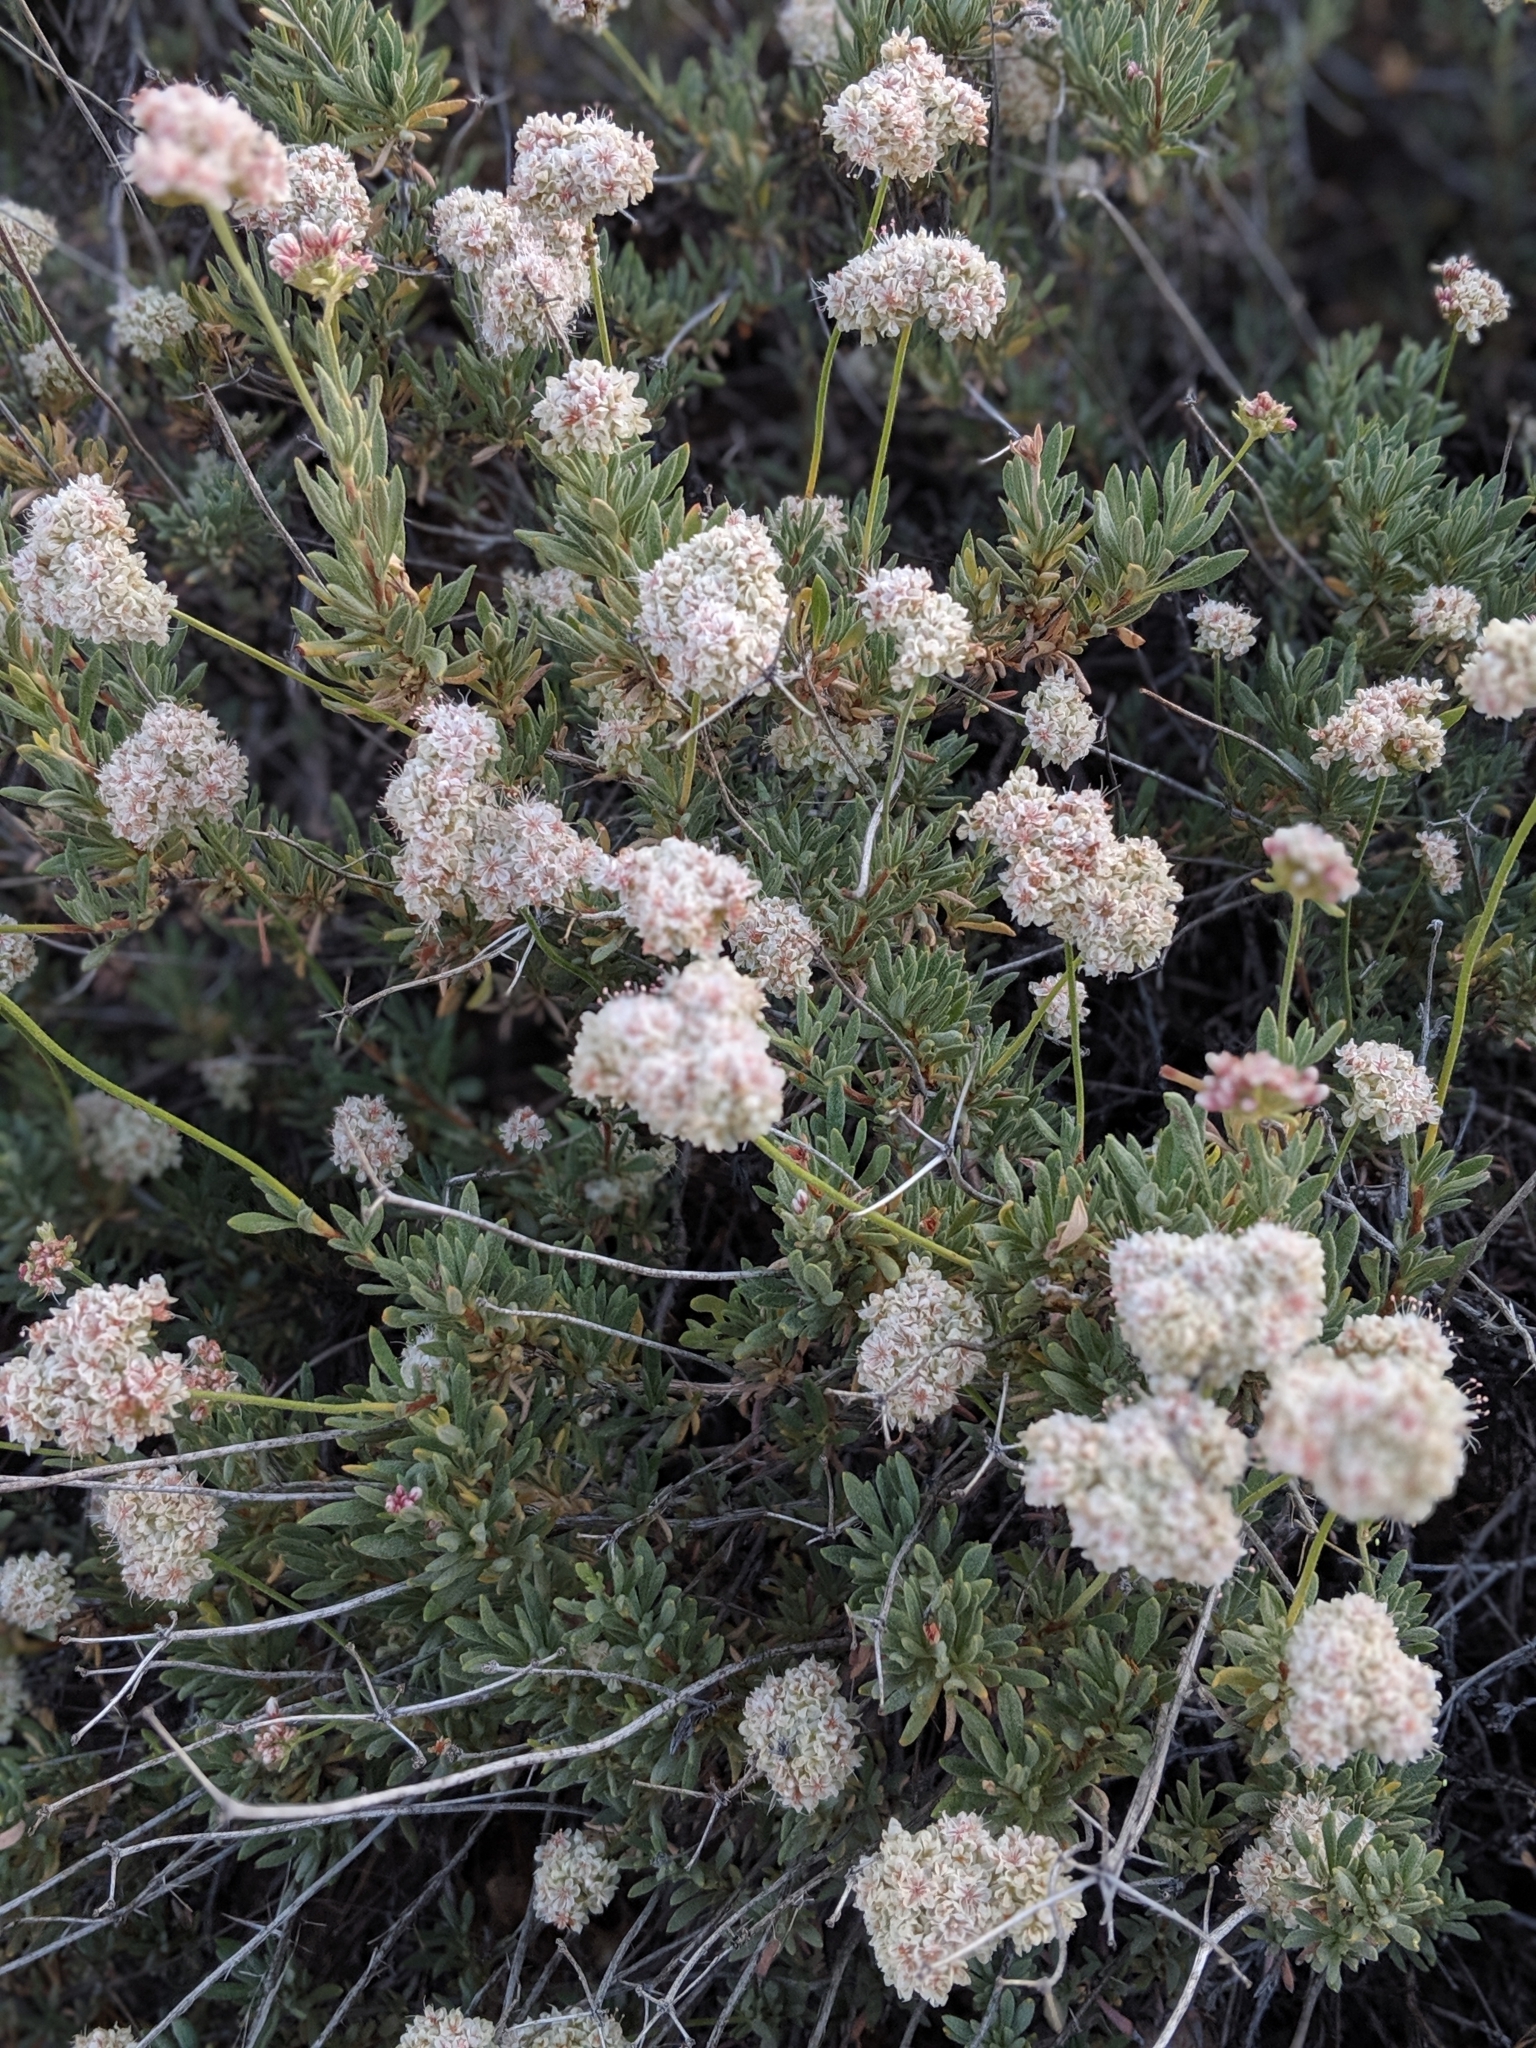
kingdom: Plantae
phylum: Tracheophyta
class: Magnoliopsida
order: Caryophyllales
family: Polygonaceae
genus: Eriogonum
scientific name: Eriogonum fasciculatum
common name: California wild buckwheat
